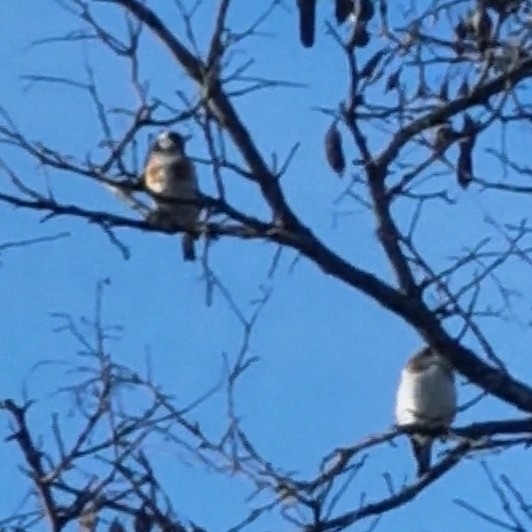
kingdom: Animalia
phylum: Chordata
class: Aves
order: Passeriformes
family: Fringillidae
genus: Carduelis
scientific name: Carduelis carduelis
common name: European goldfinch
